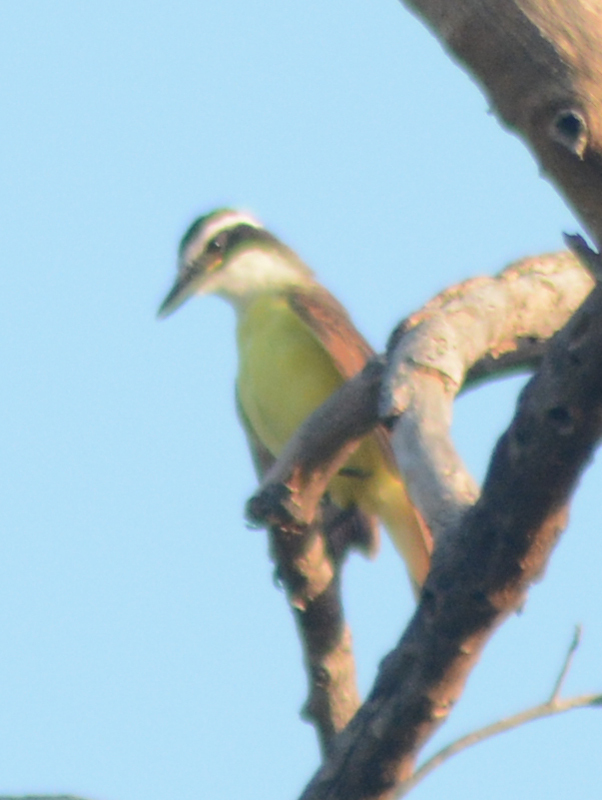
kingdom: Animalia
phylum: Chordata
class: Aves
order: Passeriformes
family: Tyrannidae
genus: Pitangus
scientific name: Pitangus sulphuratus
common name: Great kiskadee
